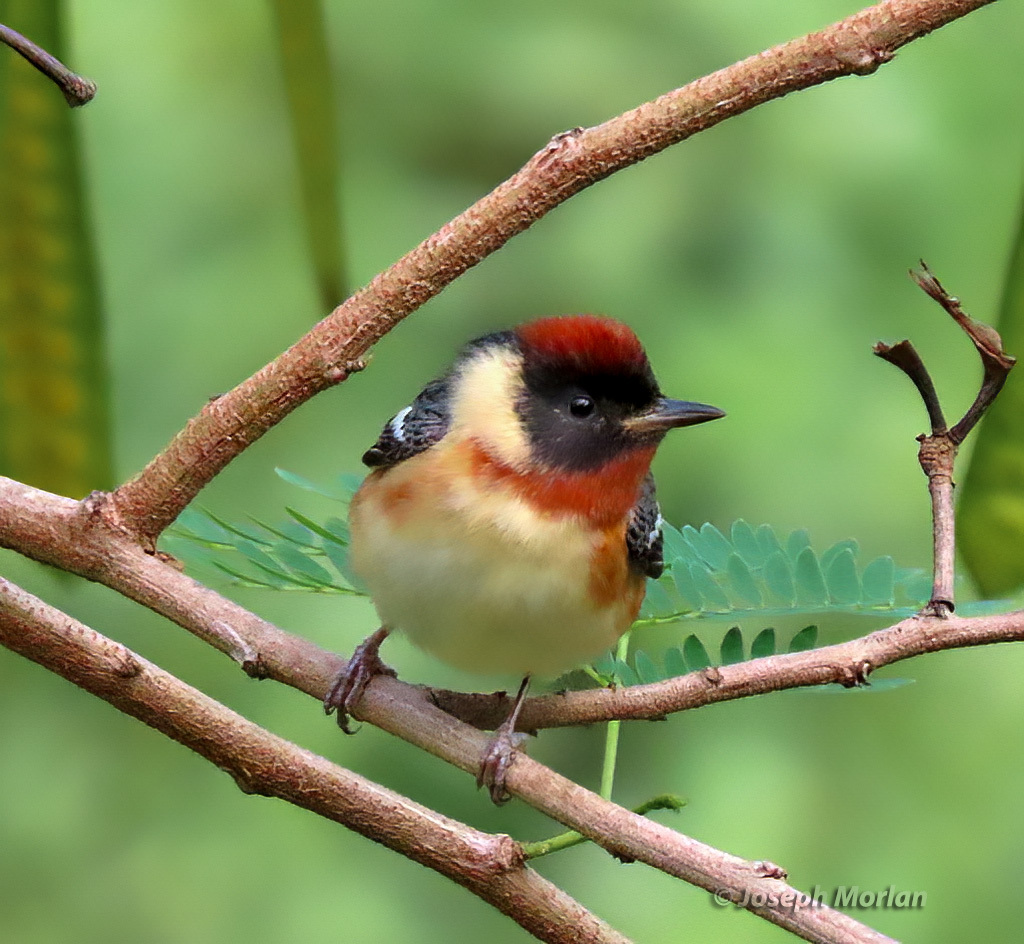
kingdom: Animalia
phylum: Chordata
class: Aves
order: Passeriformes
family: Parulidae
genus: Setophaga
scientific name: Setophaga castanea
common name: Bay-breasted warbler
